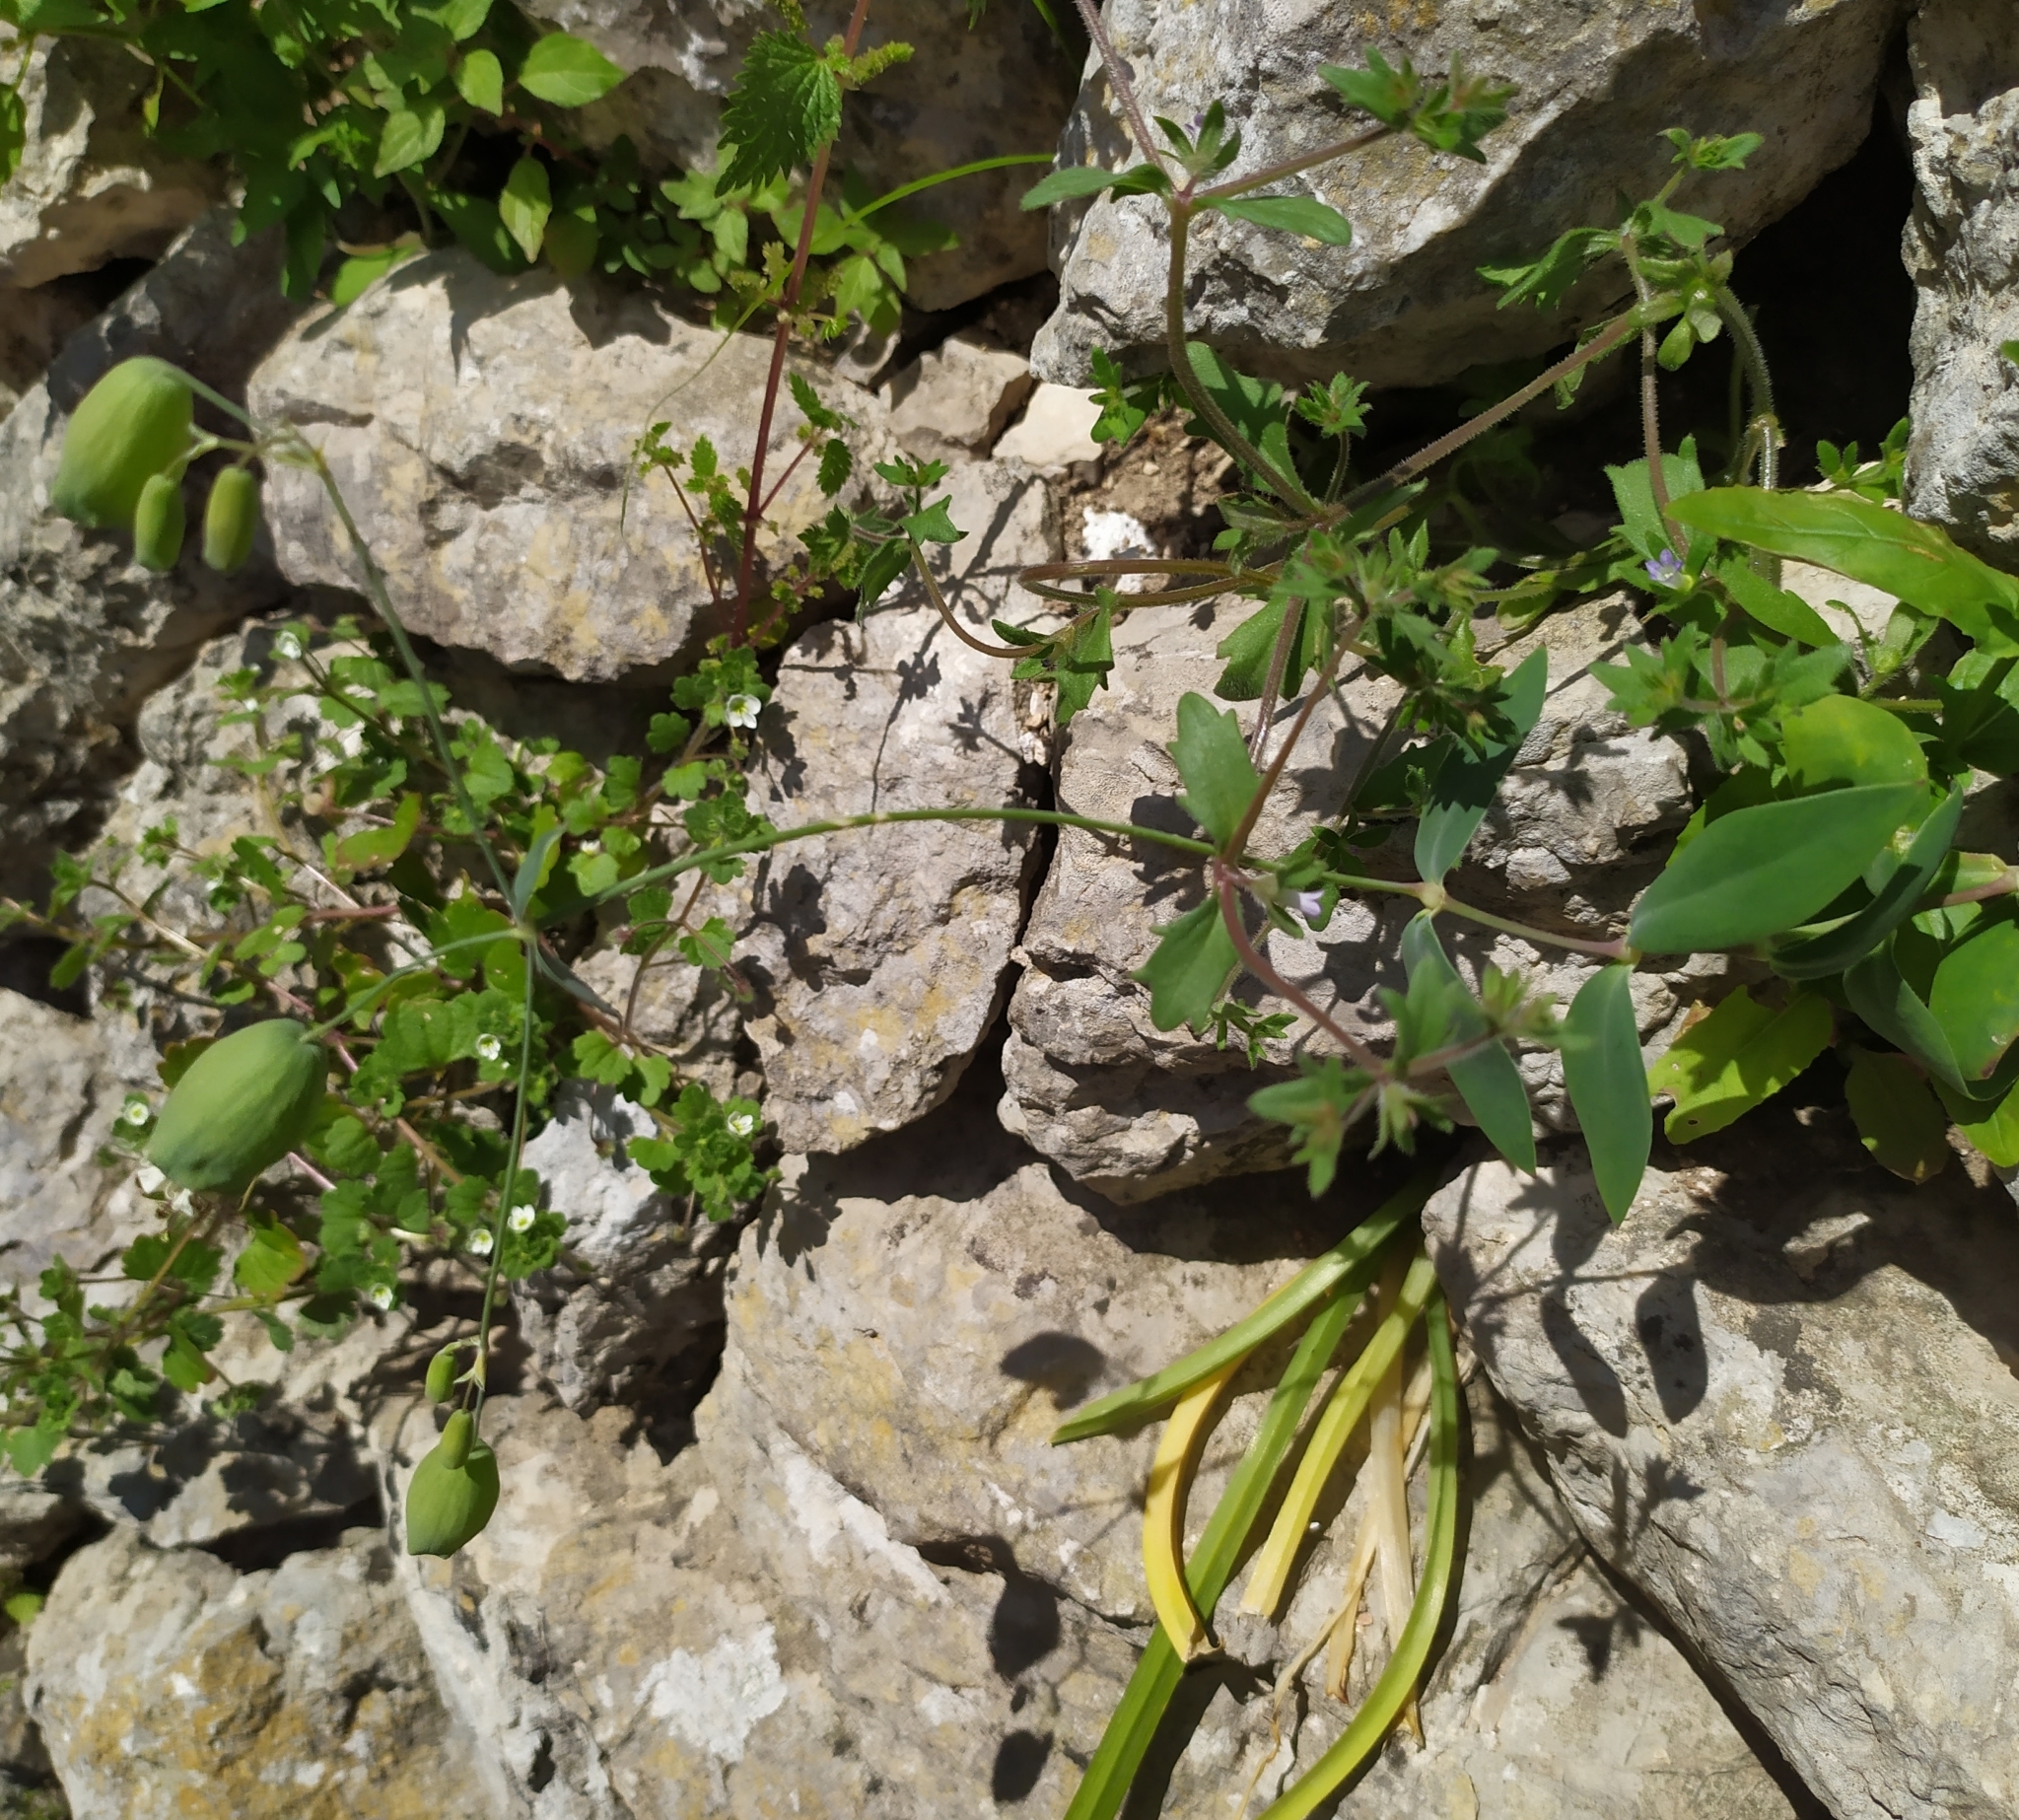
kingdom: Plantae
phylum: Tracheophyta
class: Magnoliopsida
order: Caryophyllales
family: Caryophyllaceae
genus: Silene
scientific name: Silene vulgaris
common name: Bladder campion
